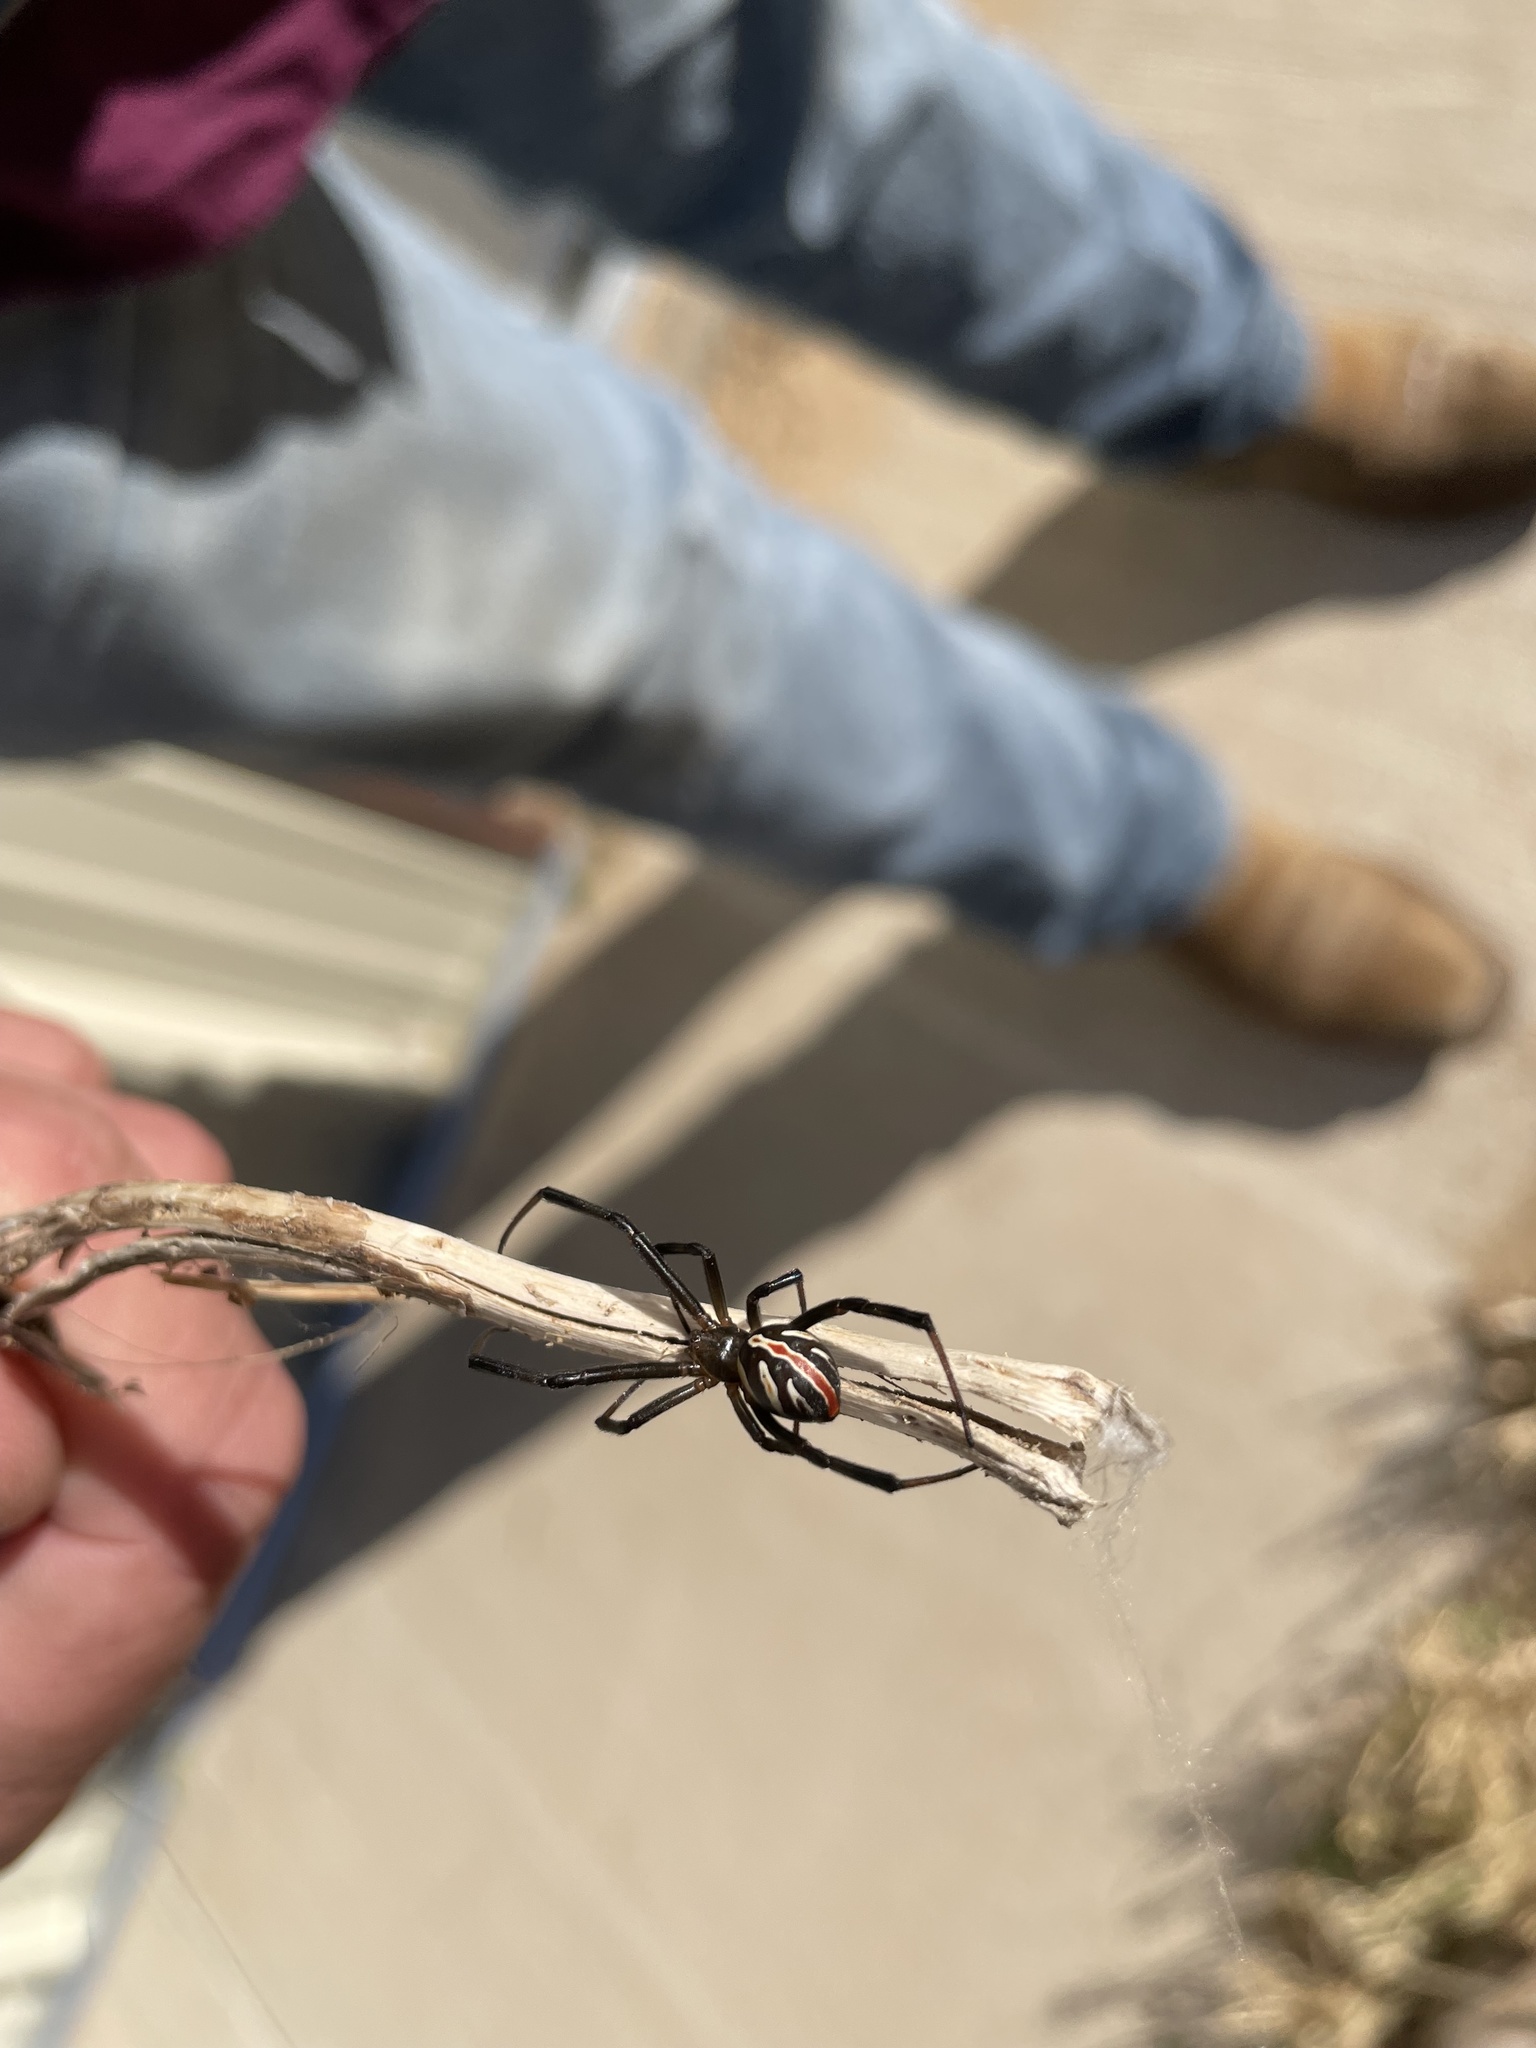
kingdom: Animalia
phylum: Arthropoda
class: Arachnida
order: Araneae
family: Theridiidae
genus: Latrodectus
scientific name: Latrodectus hesperus
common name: Western black widow
